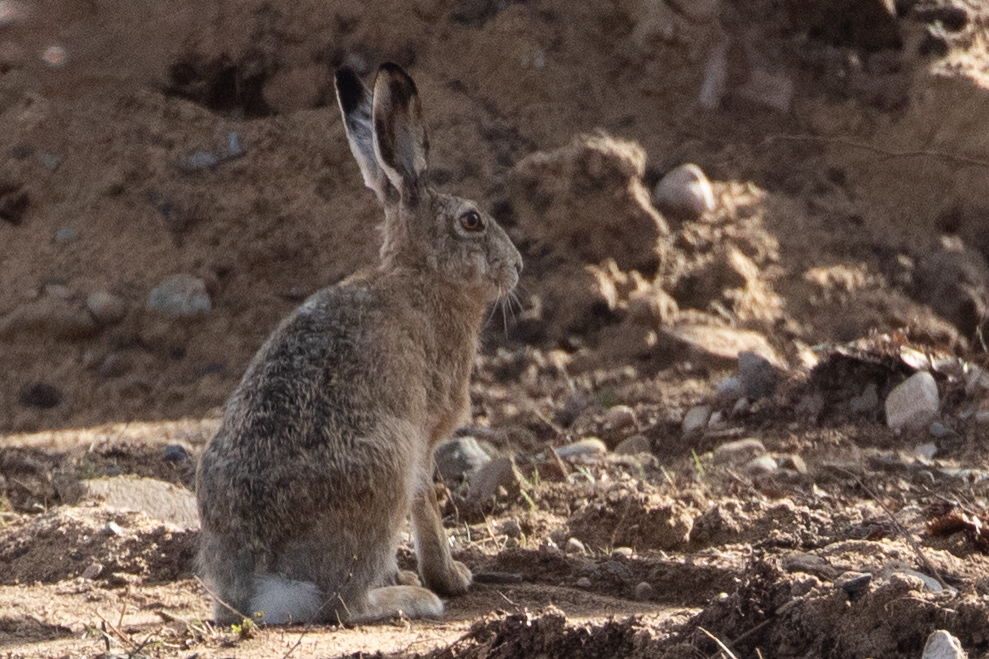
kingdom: Animalia
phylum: Chordata
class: Mammalia
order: Lagomorpha
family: Leporidae
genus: Lepus
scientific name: Lepus europaeus
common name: European hare
